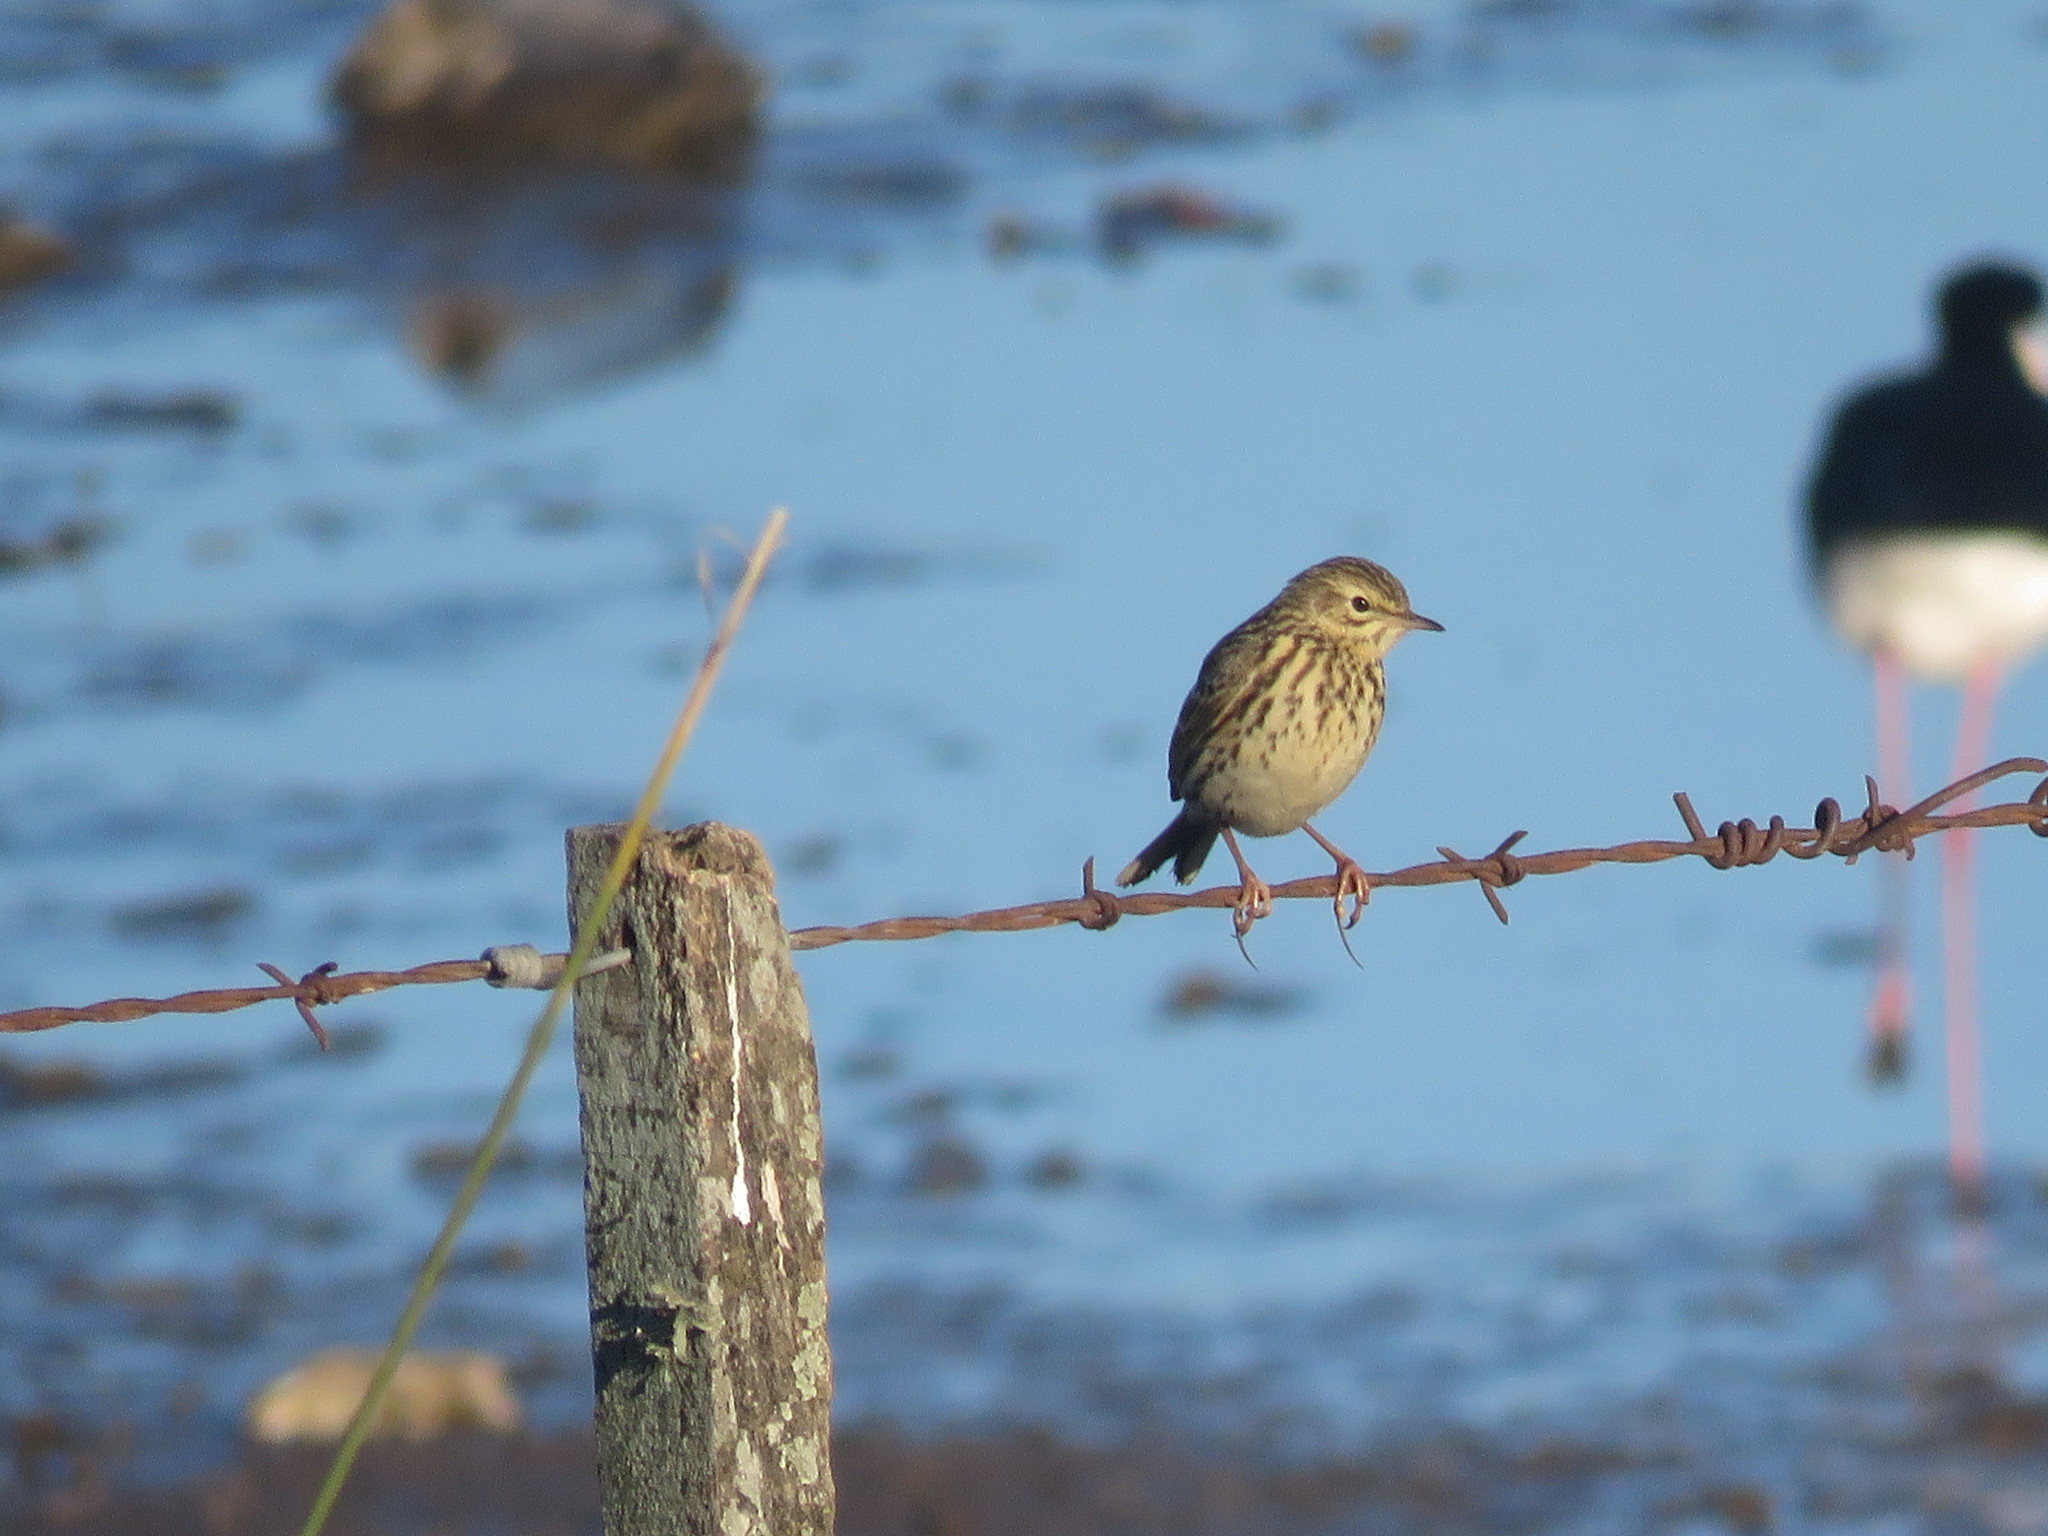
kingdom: Animalia
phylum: Chordata
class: Aves
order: Passeriformes
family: Motacillidae
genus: Anthus
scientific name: Anthus correndera
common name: Correndera pipit
